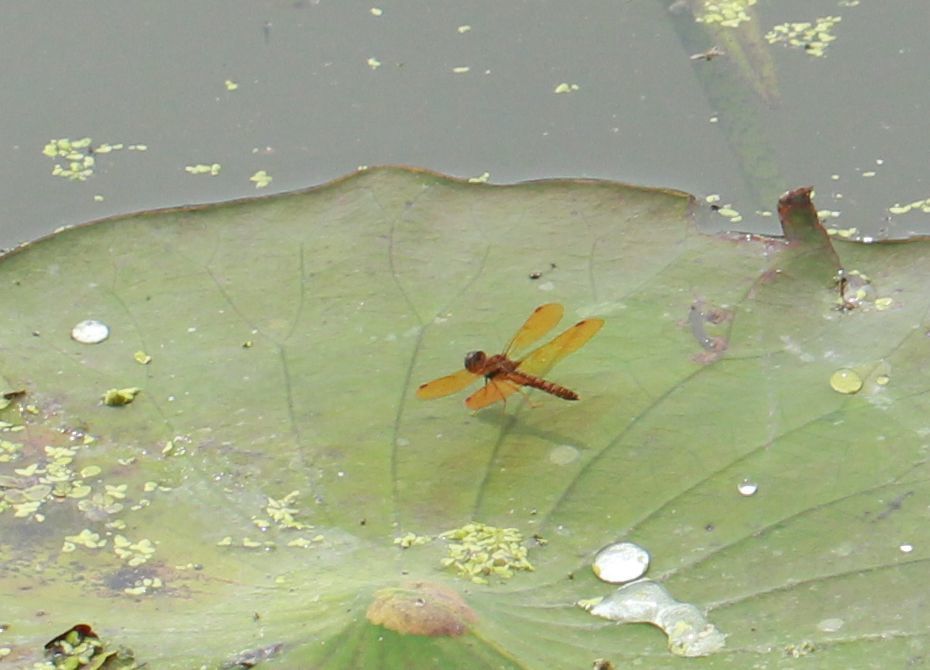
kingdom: Animalia
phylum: Arthropoda
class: Insecta
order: Odonata
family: Libellulidae
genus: Perithemis
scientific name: Perithemis tenera
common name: Eastern amberwing
